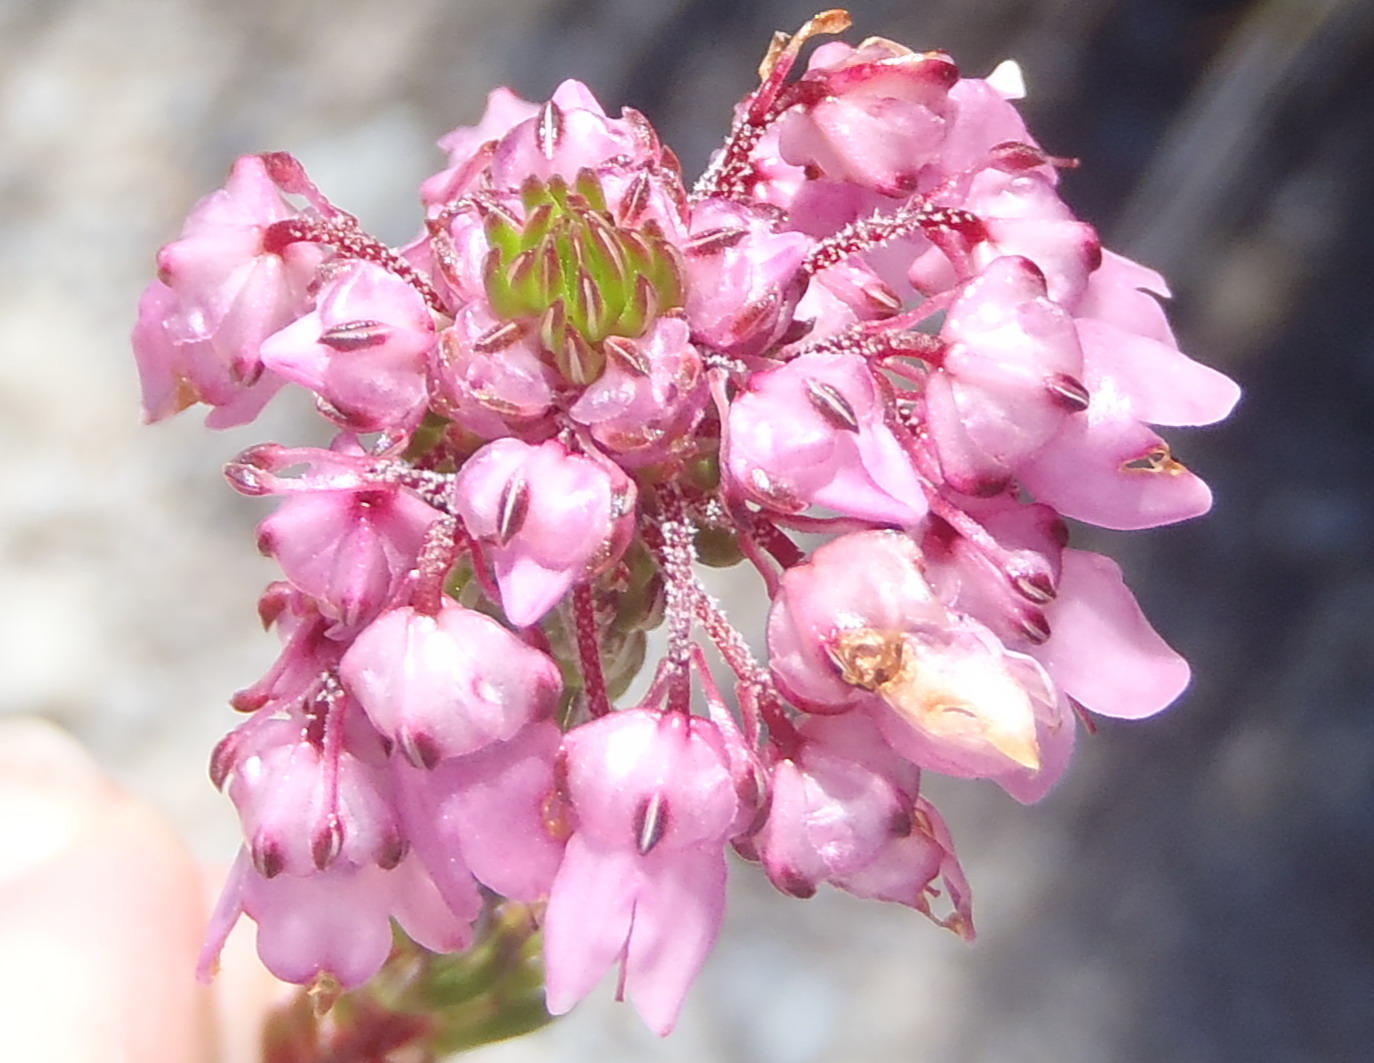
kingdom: Plantae
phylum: Tracheophyta
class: Magnoliopsida
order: Ericales
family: Ericaceae
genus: Erica
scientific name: Erica seriphiifolia
